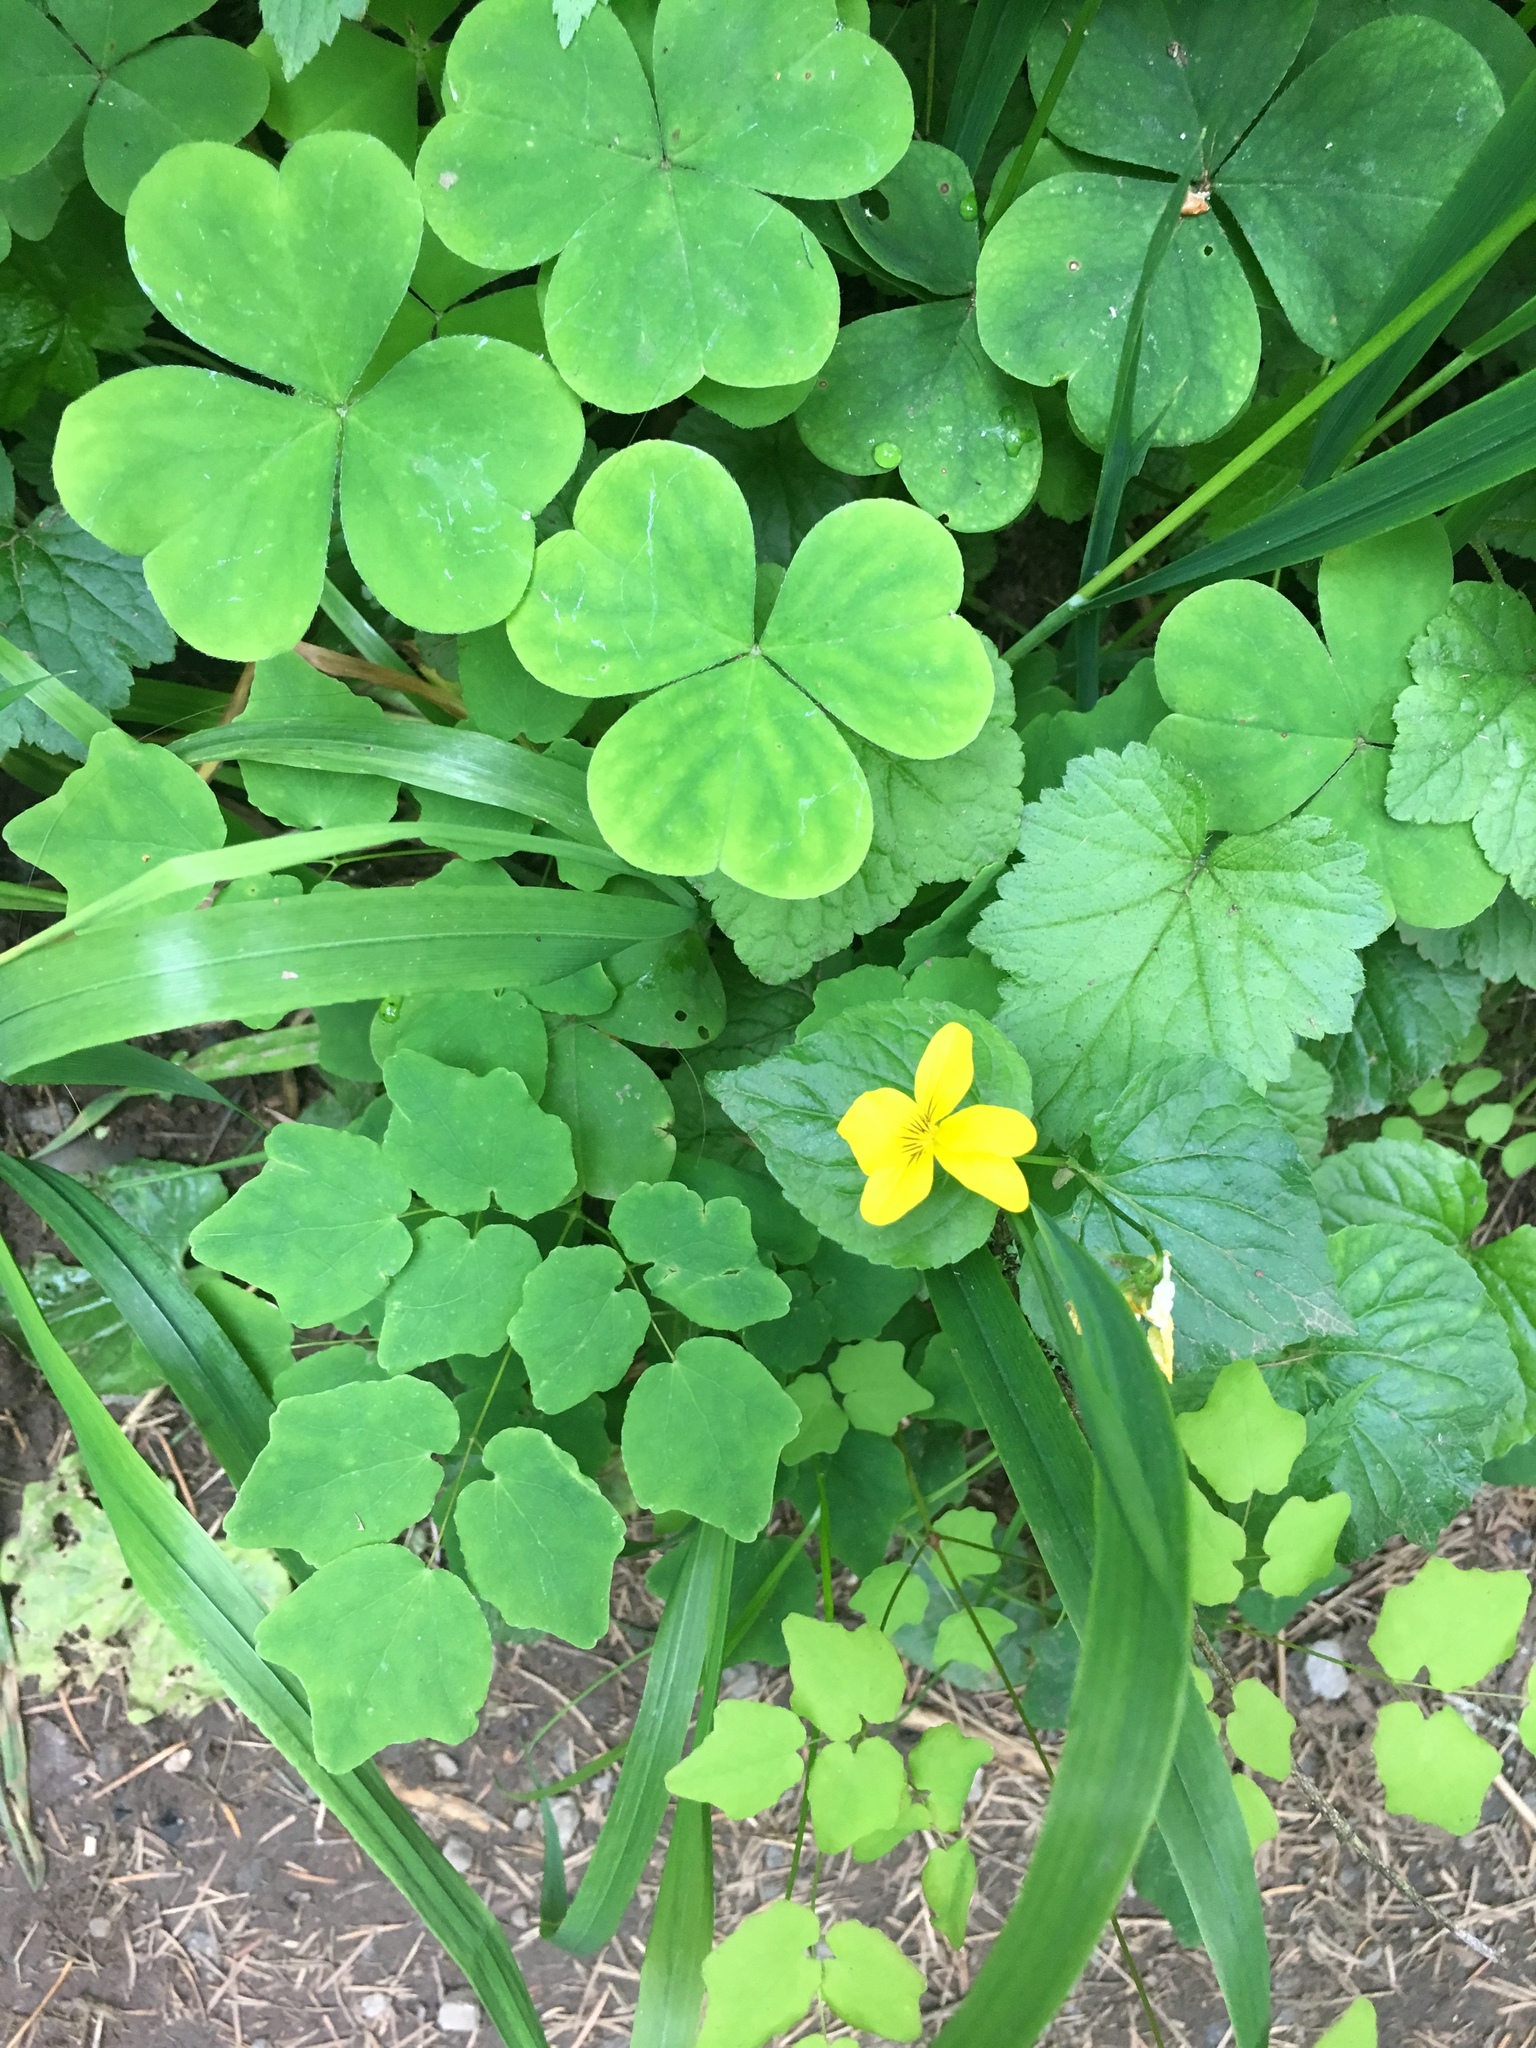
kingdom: Plantae
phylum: Tracheophyta
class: Magnoliopsida
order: Malpighiales
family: Violaceae
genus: Viola
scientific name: Viola glabella
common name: Stream violet
